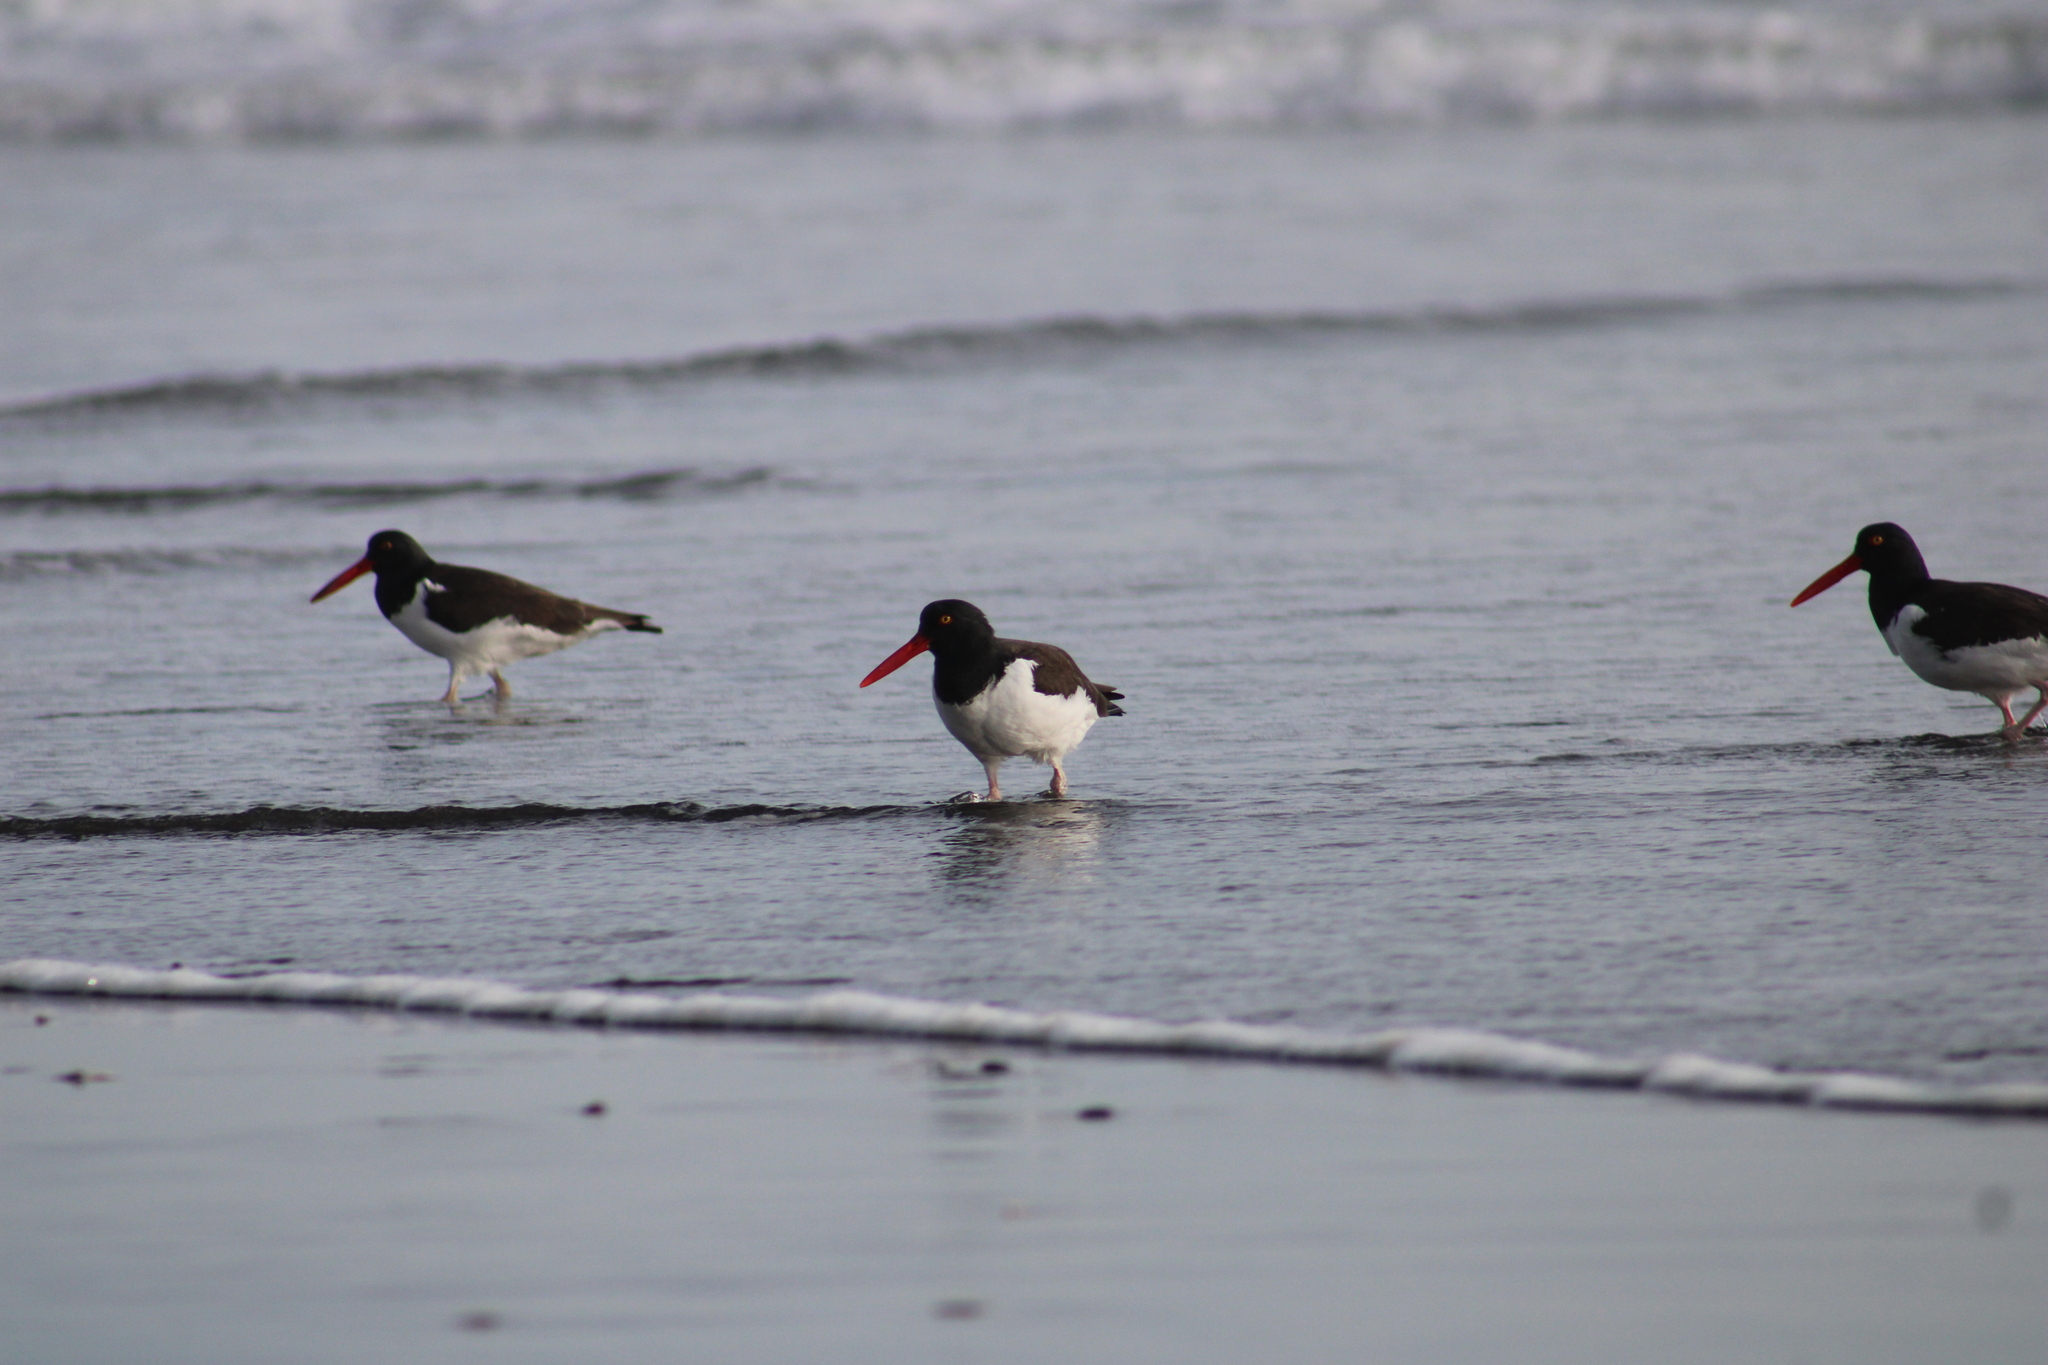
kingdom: Animalia
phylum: Chordata
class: Aves
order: Charadriiformes
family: Haematopodidae
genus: Haematopus
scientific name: Haematopus palliatus
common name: American oystercatcher
